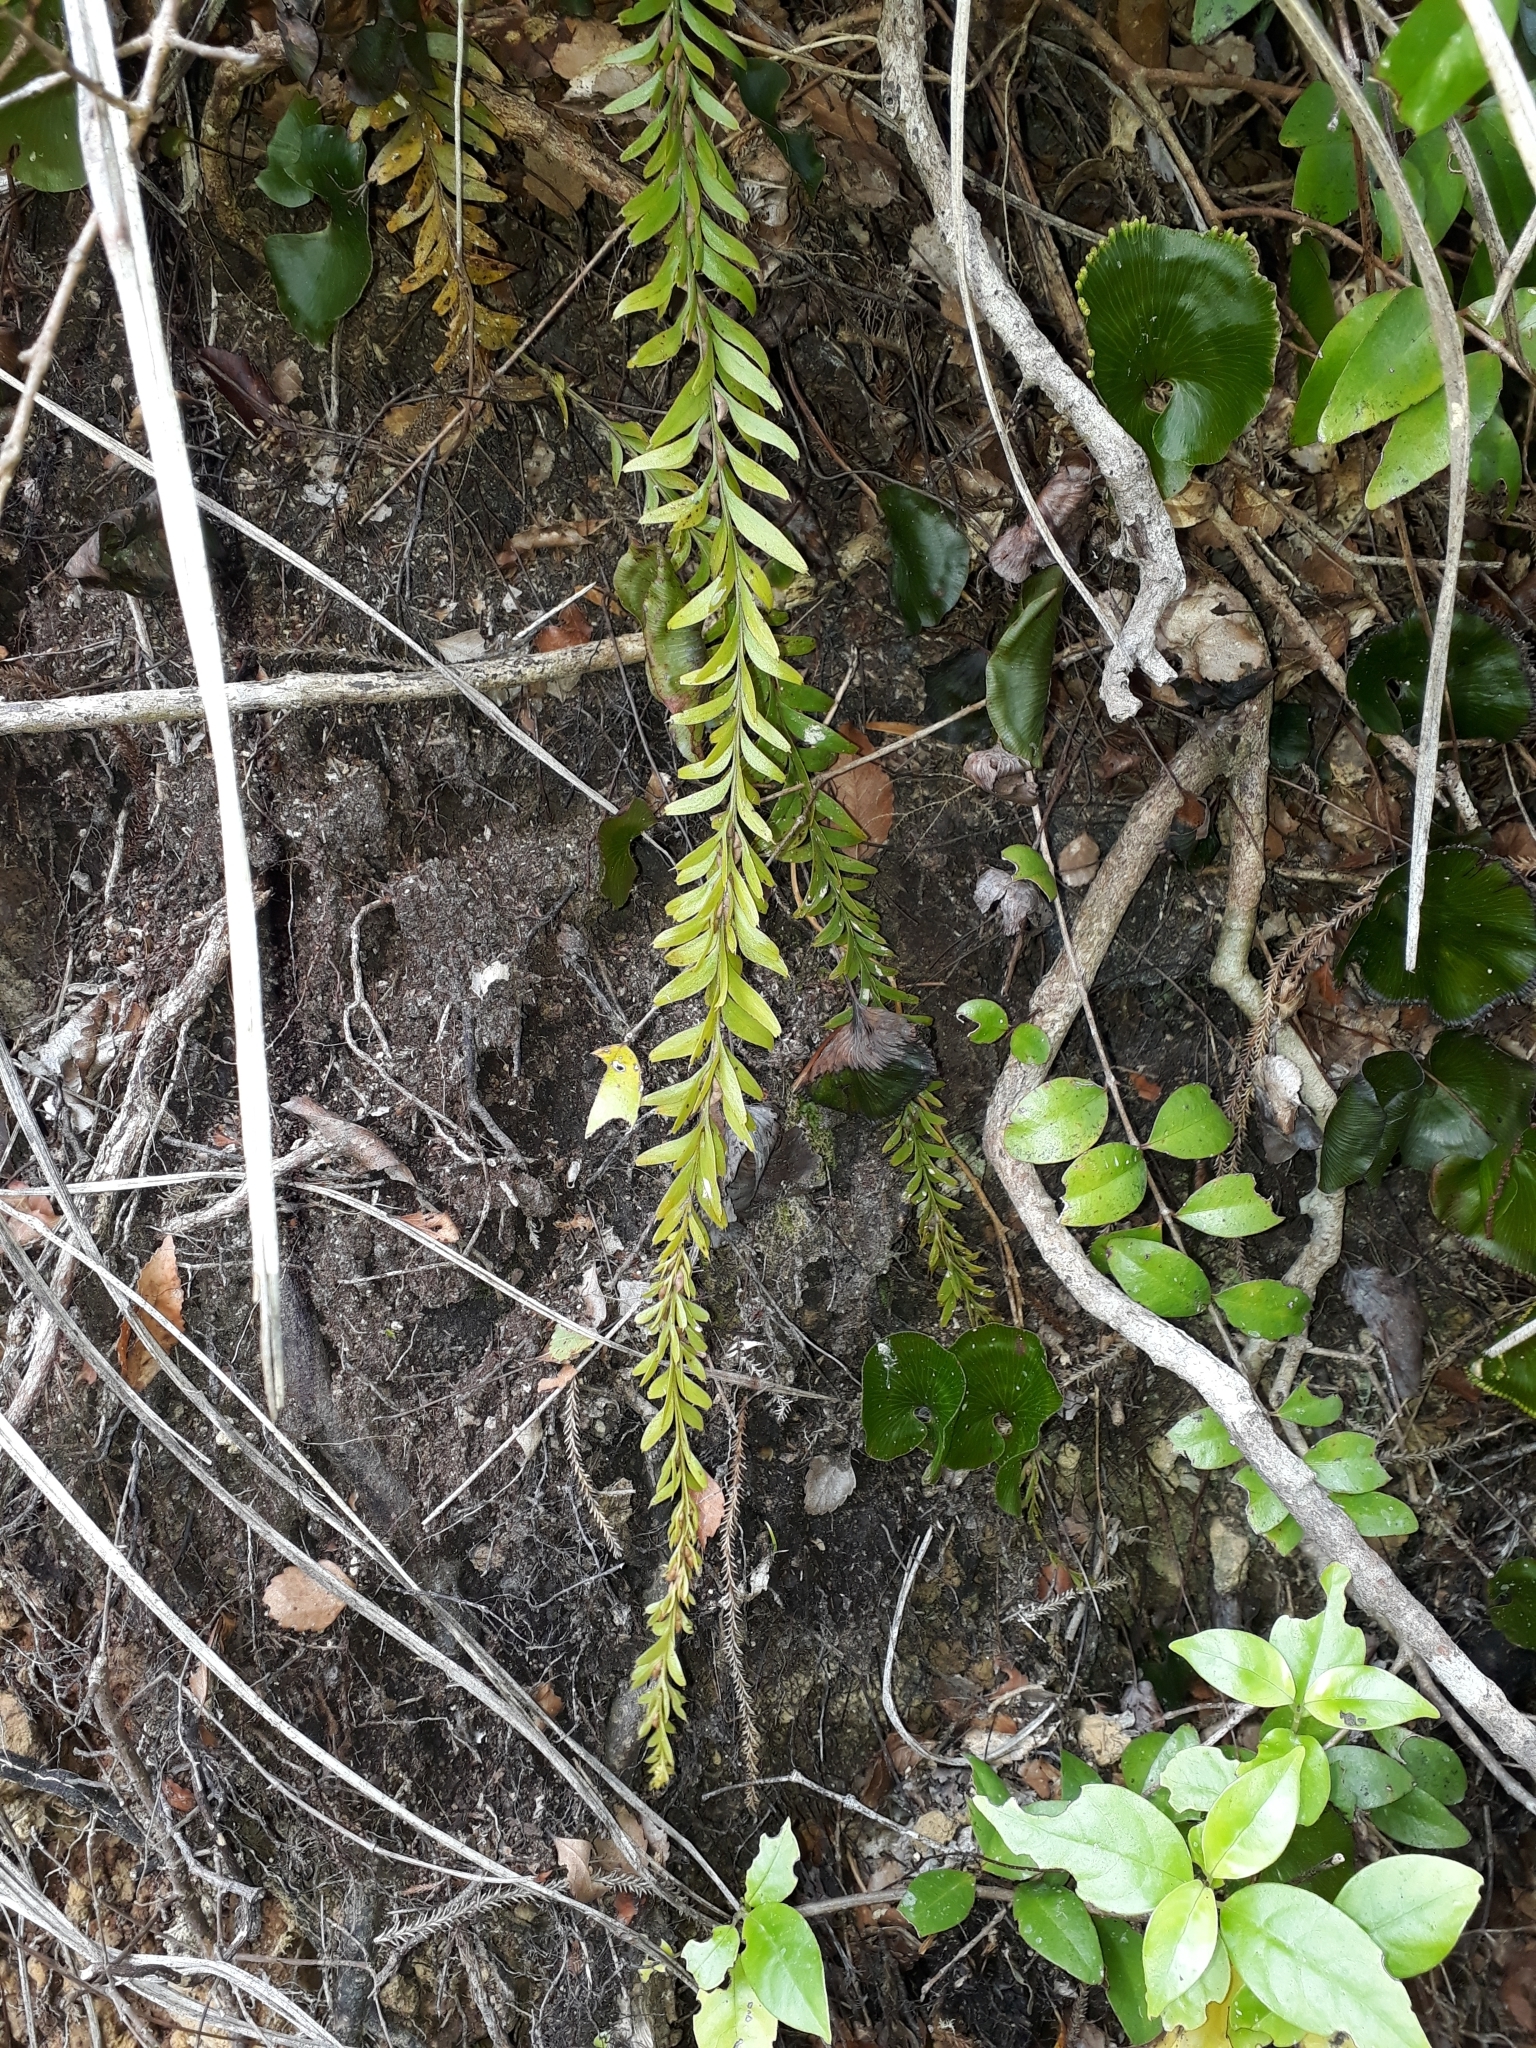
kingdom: Plantae
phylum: Tracheophyta
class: Polypodiopsida
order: Psilotales
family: Psilotaceae
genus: Tmesipteris
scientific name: Tmesipteris tannensis
